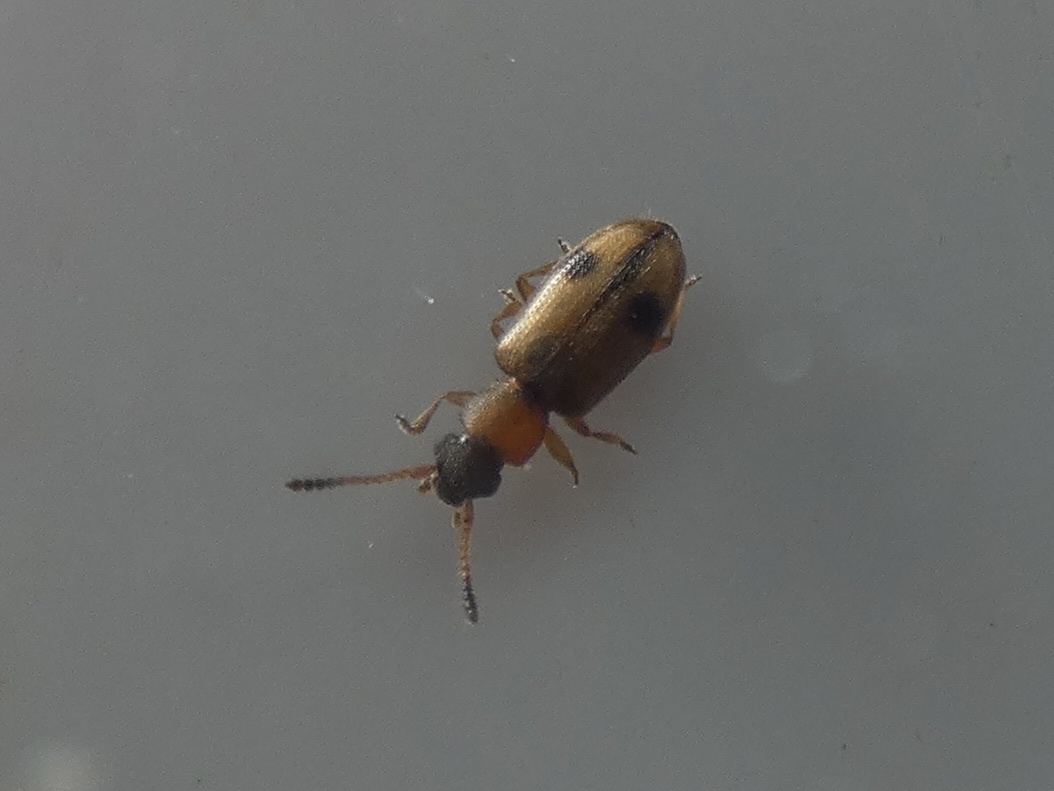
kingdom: Animalia
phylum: Arthropoda
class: Insecta
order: Coleoptera
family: Silvanidae
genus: Psammoecus
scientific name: Psammoecus bipunctatus
